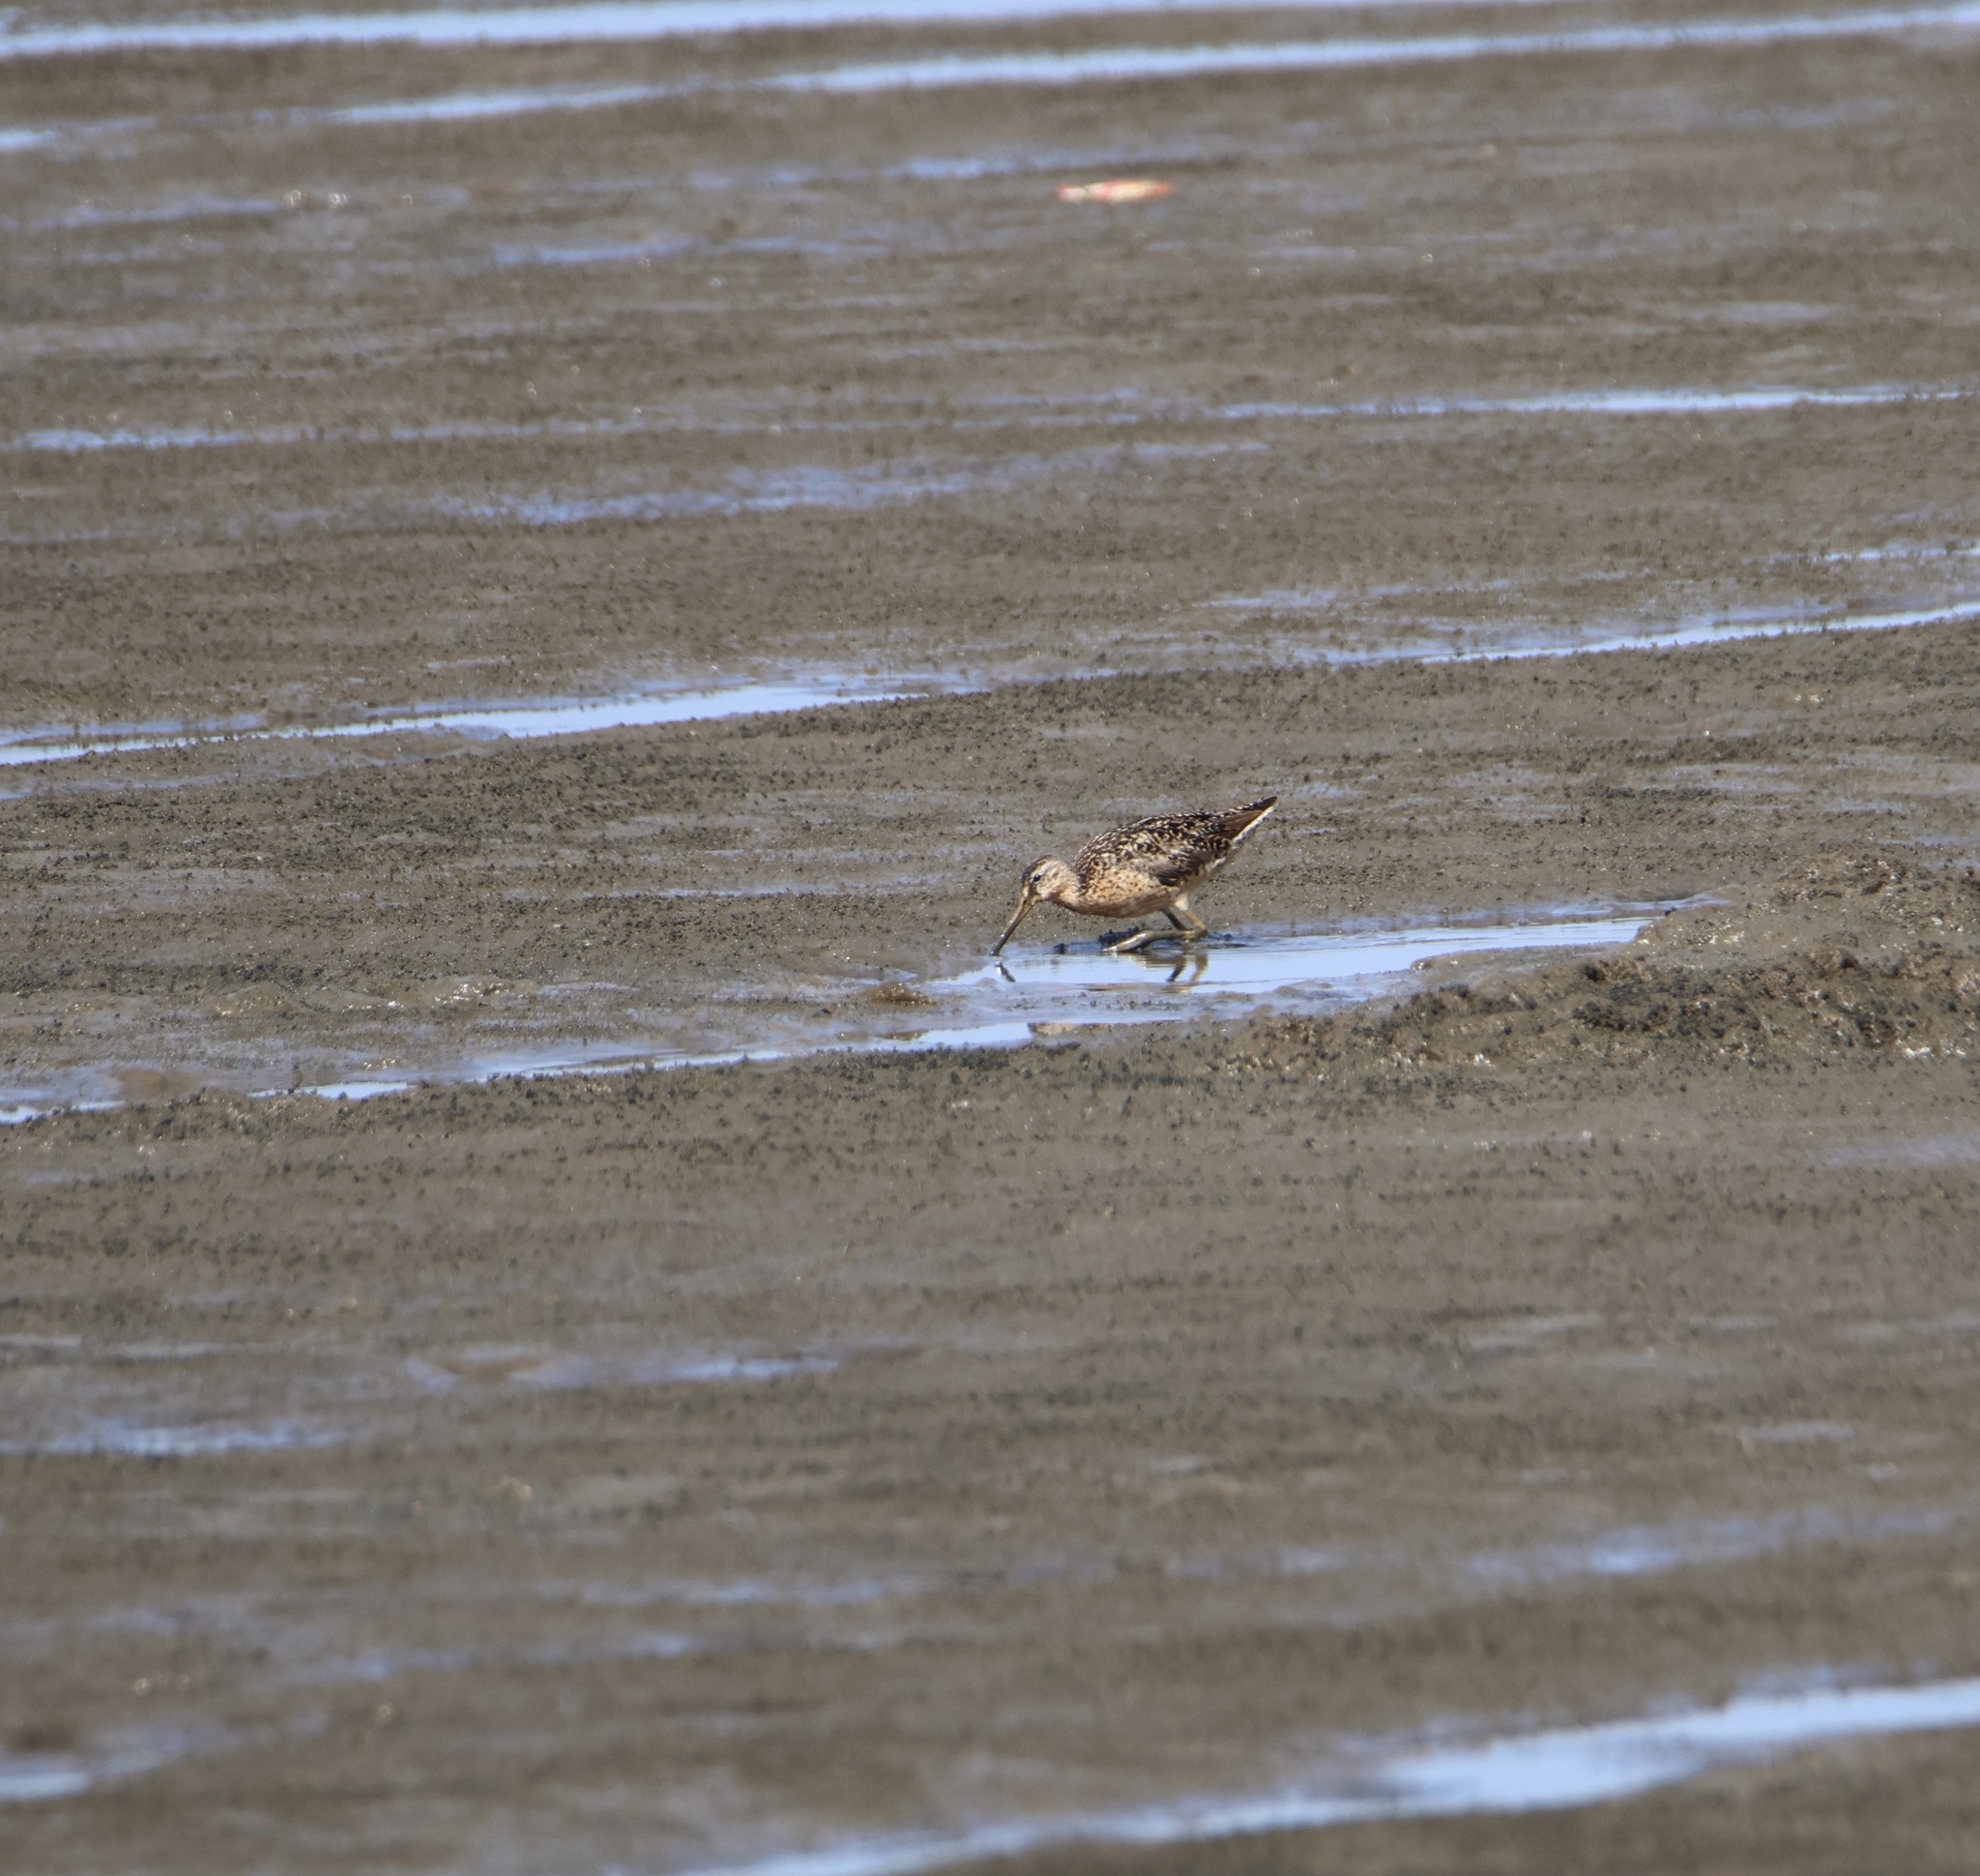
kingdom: Animalia
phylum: Chordata
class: Aves
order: Charadriiformes
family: Scolopacidae
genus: Limnodromus
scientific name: Limnodromus griseus
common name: Short-billed dowitcher
